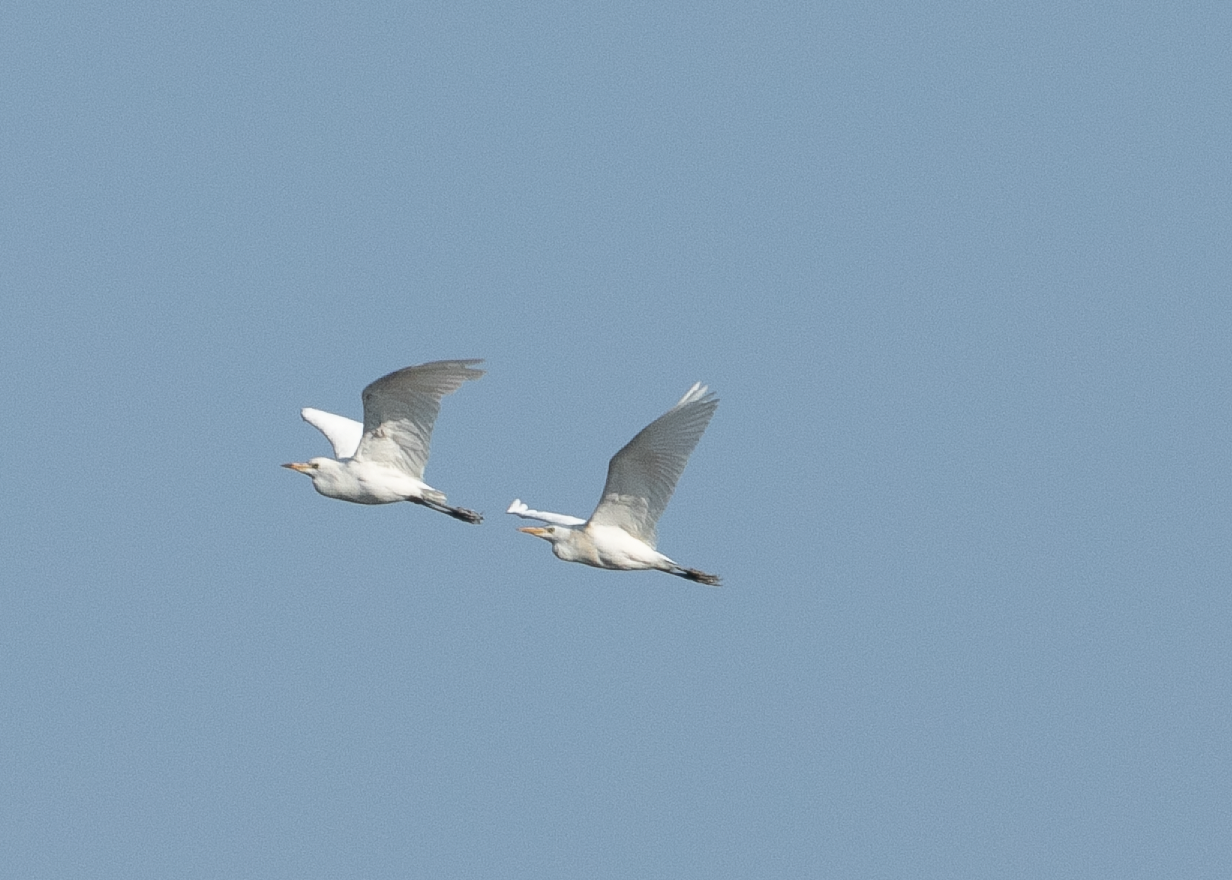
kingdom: Animalia
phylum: Chordata
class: Aves
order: Pelecaniformes
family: Ardeidae
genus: Bubulcus
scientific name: Bubulcus ibis
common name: Cattle egret
